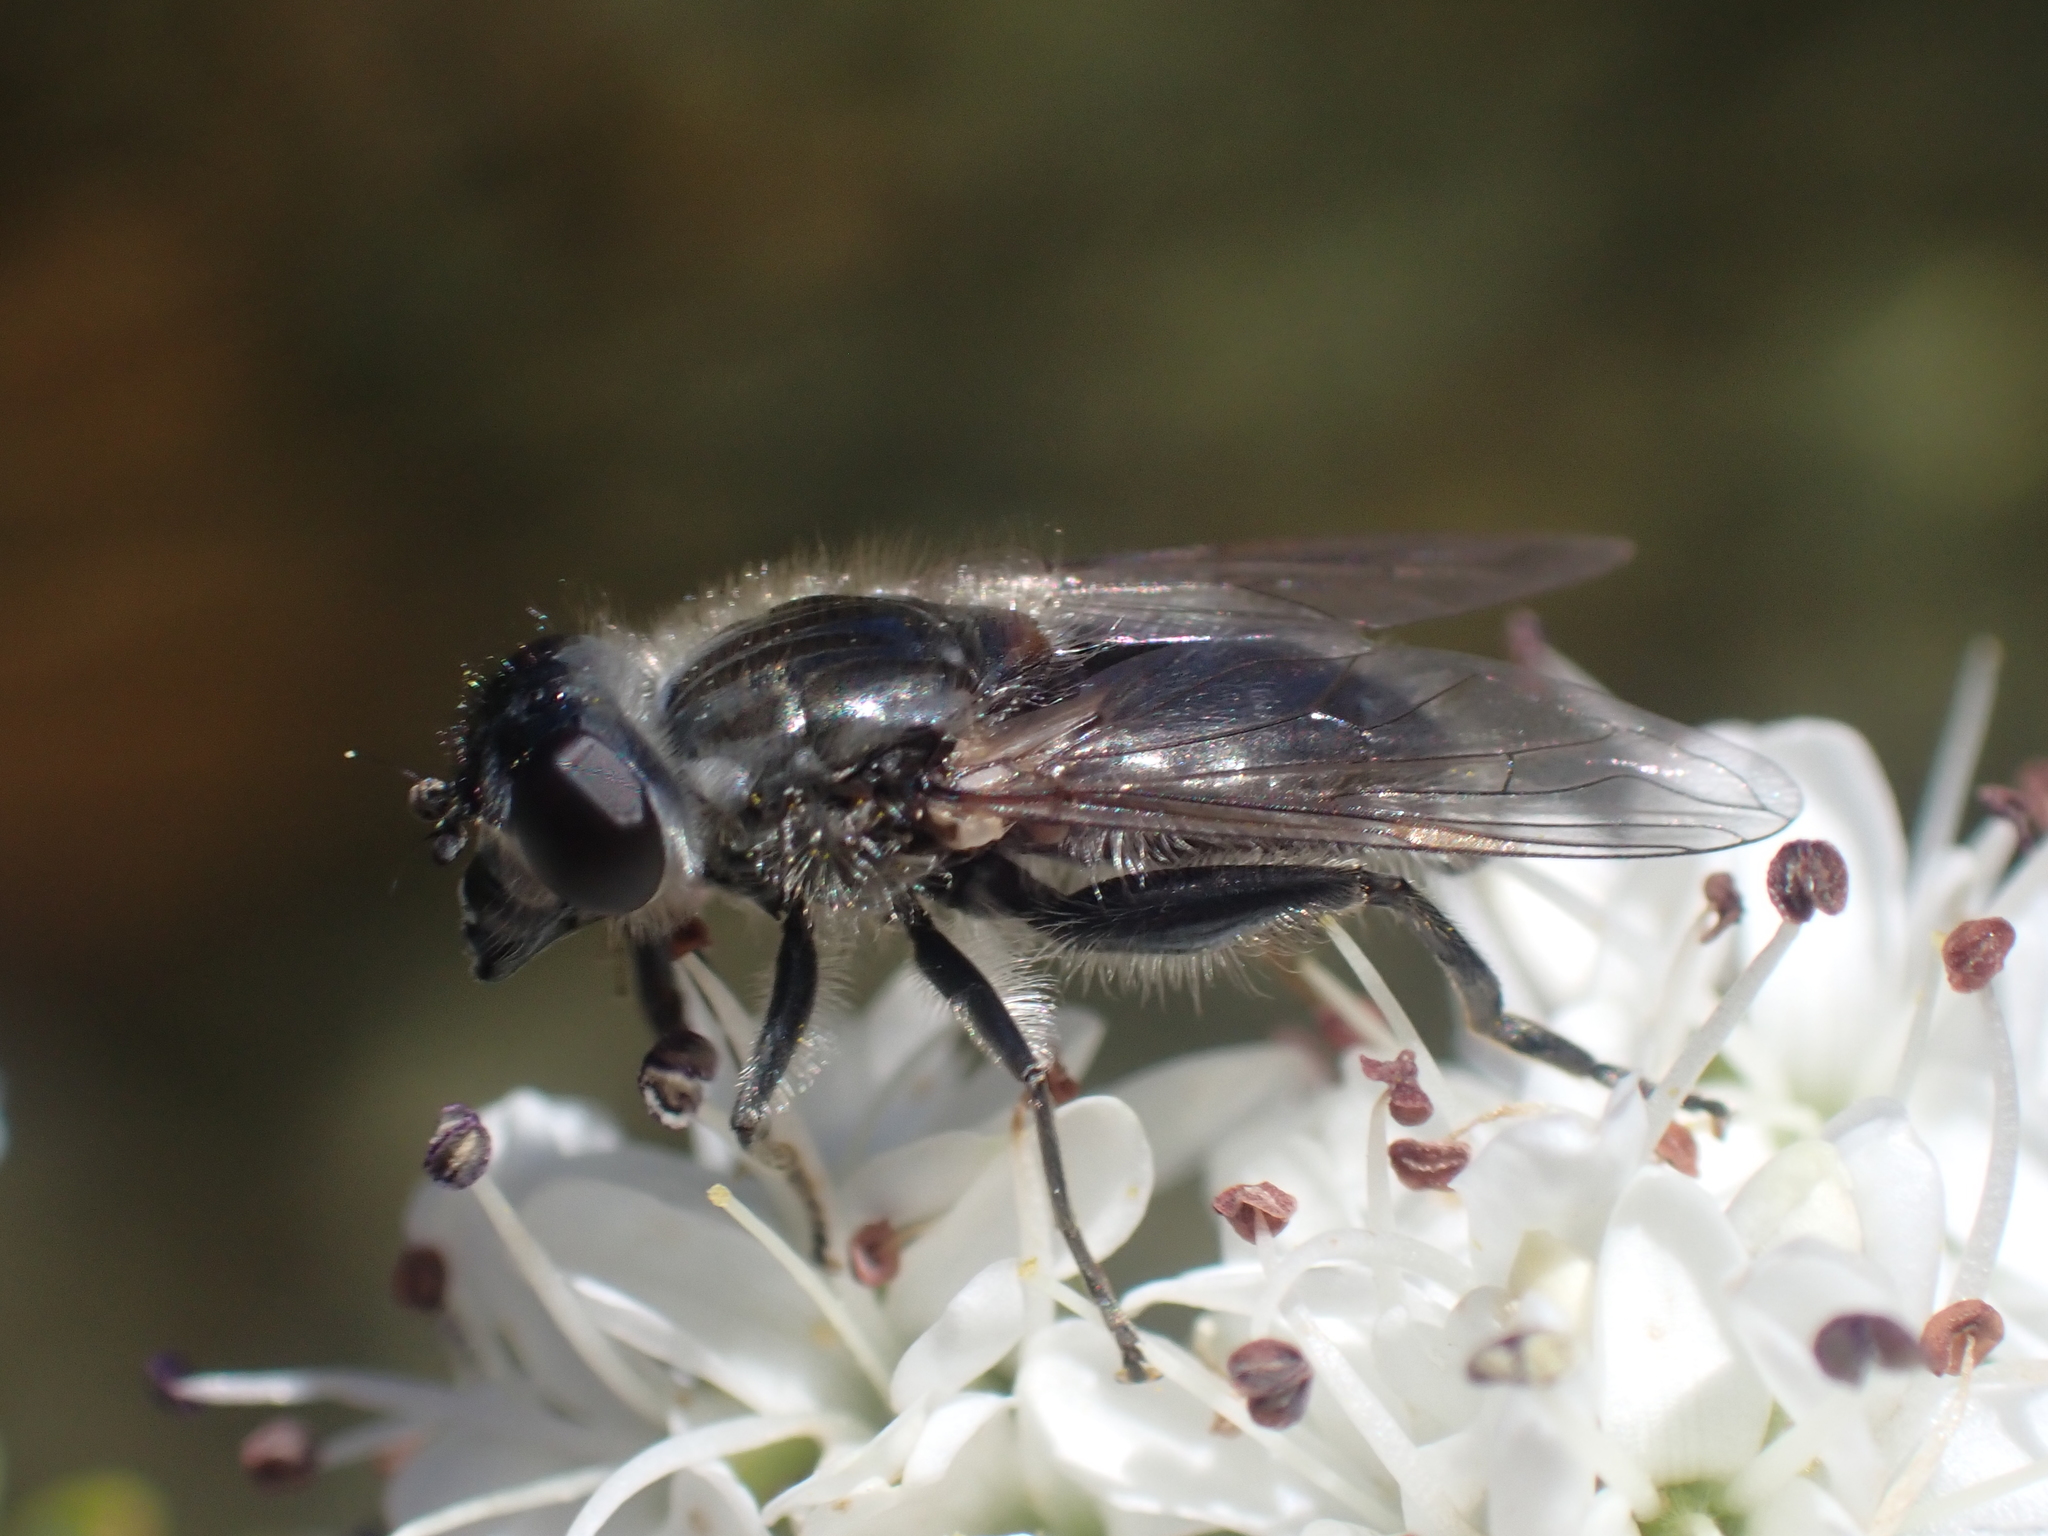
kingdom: Animalia
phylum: Arthropoda
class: Insecta
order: Diptera
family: Syrphidae
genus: Helophilus
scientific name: Helophilus hectori
